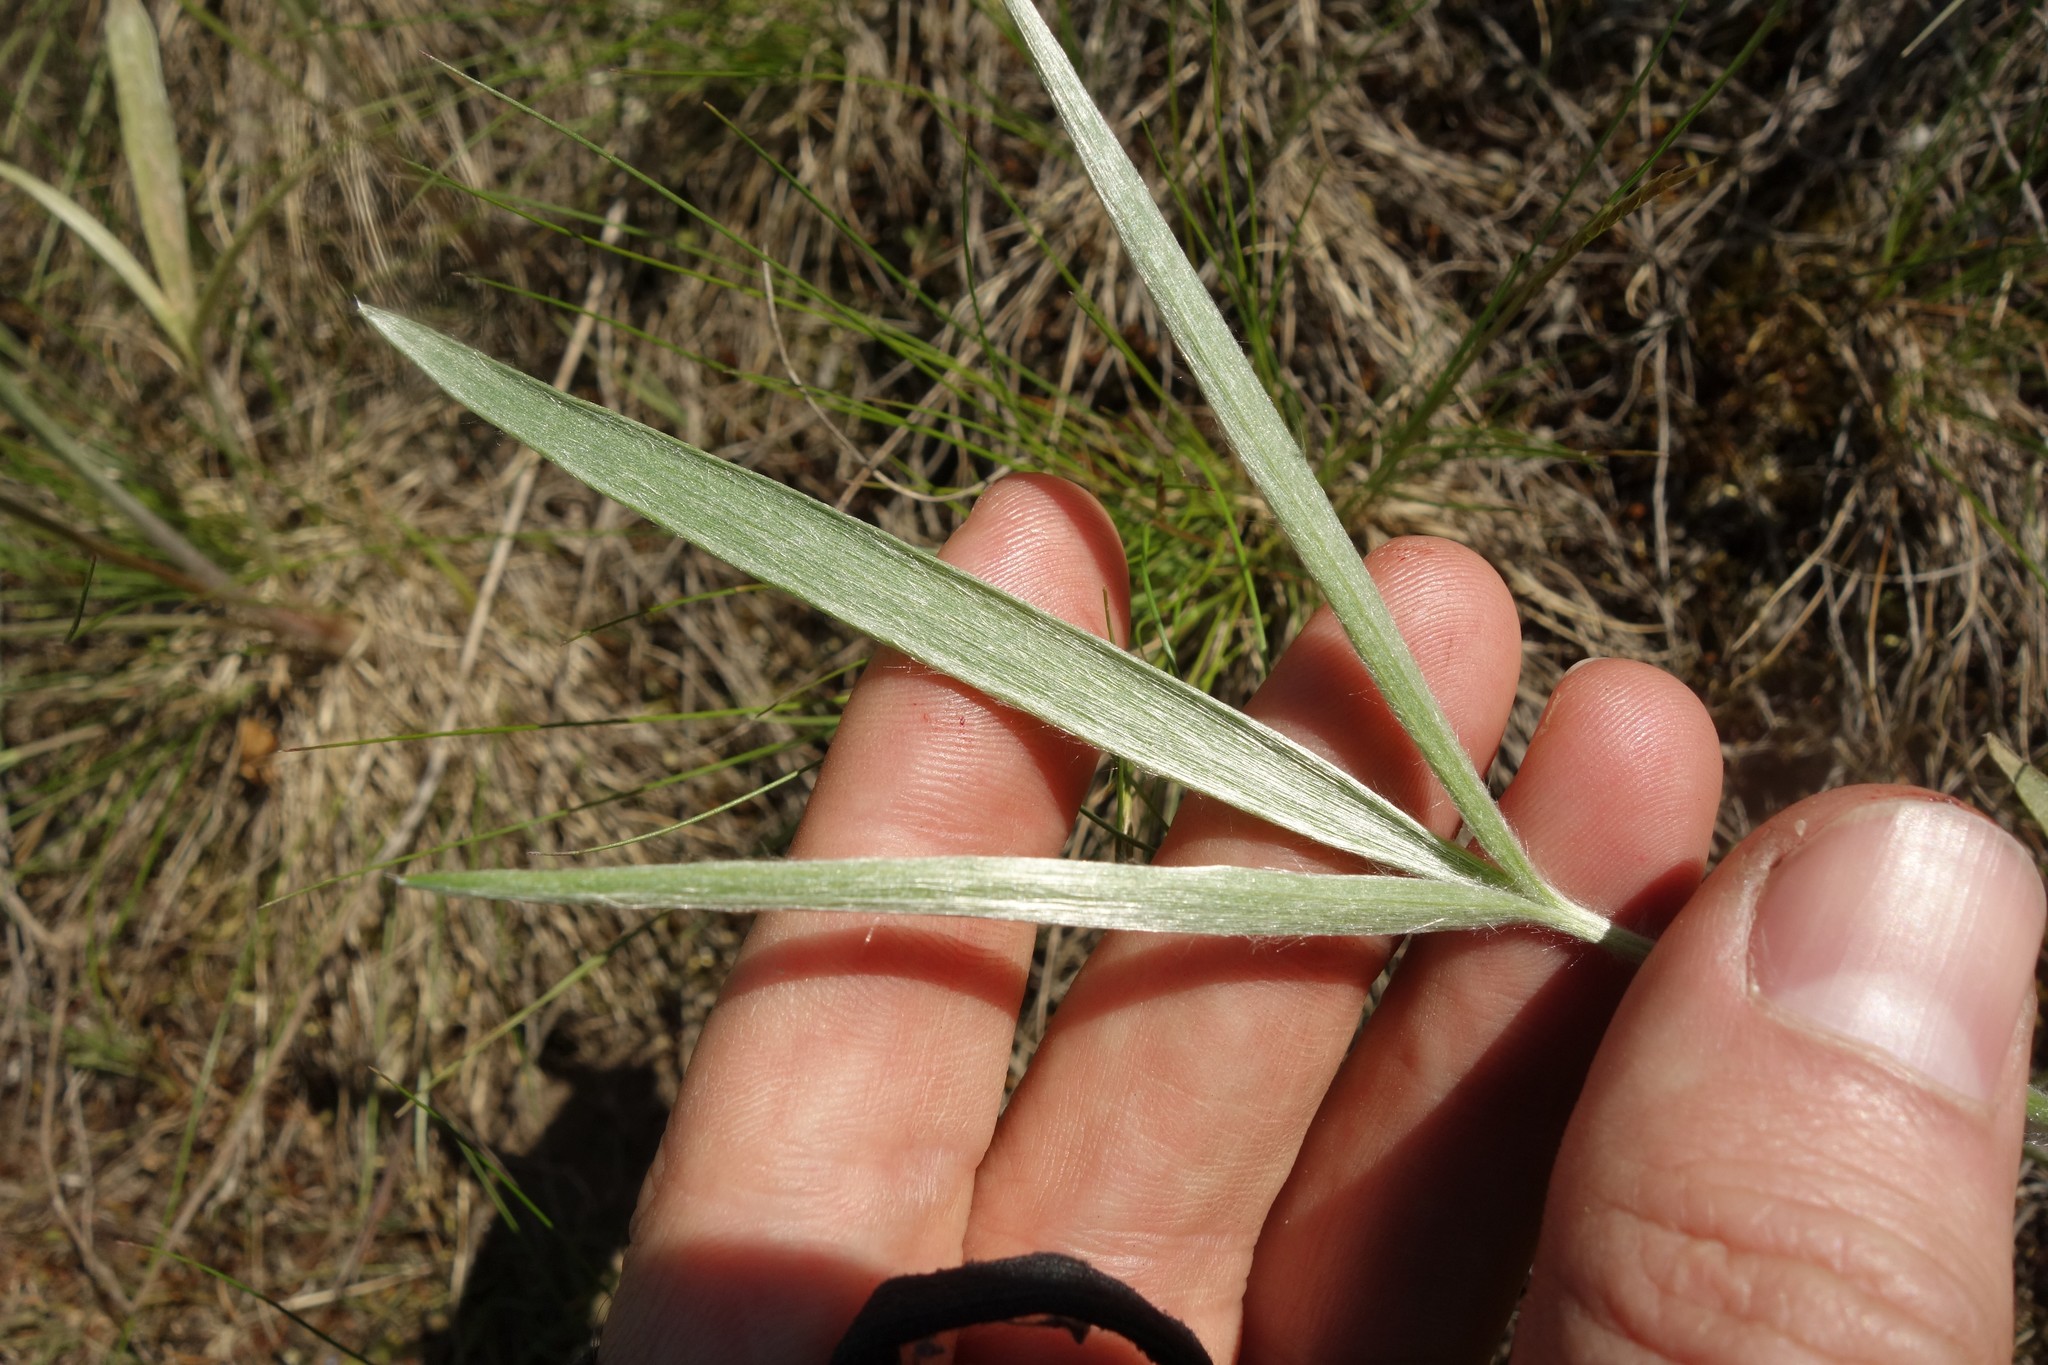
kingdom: Plantae
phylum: Tracheophyta
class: Magnoliopsida
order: Ranunculales
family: Ranunculaceae
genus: Ranunculus
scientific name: Ranunculus illyricus
